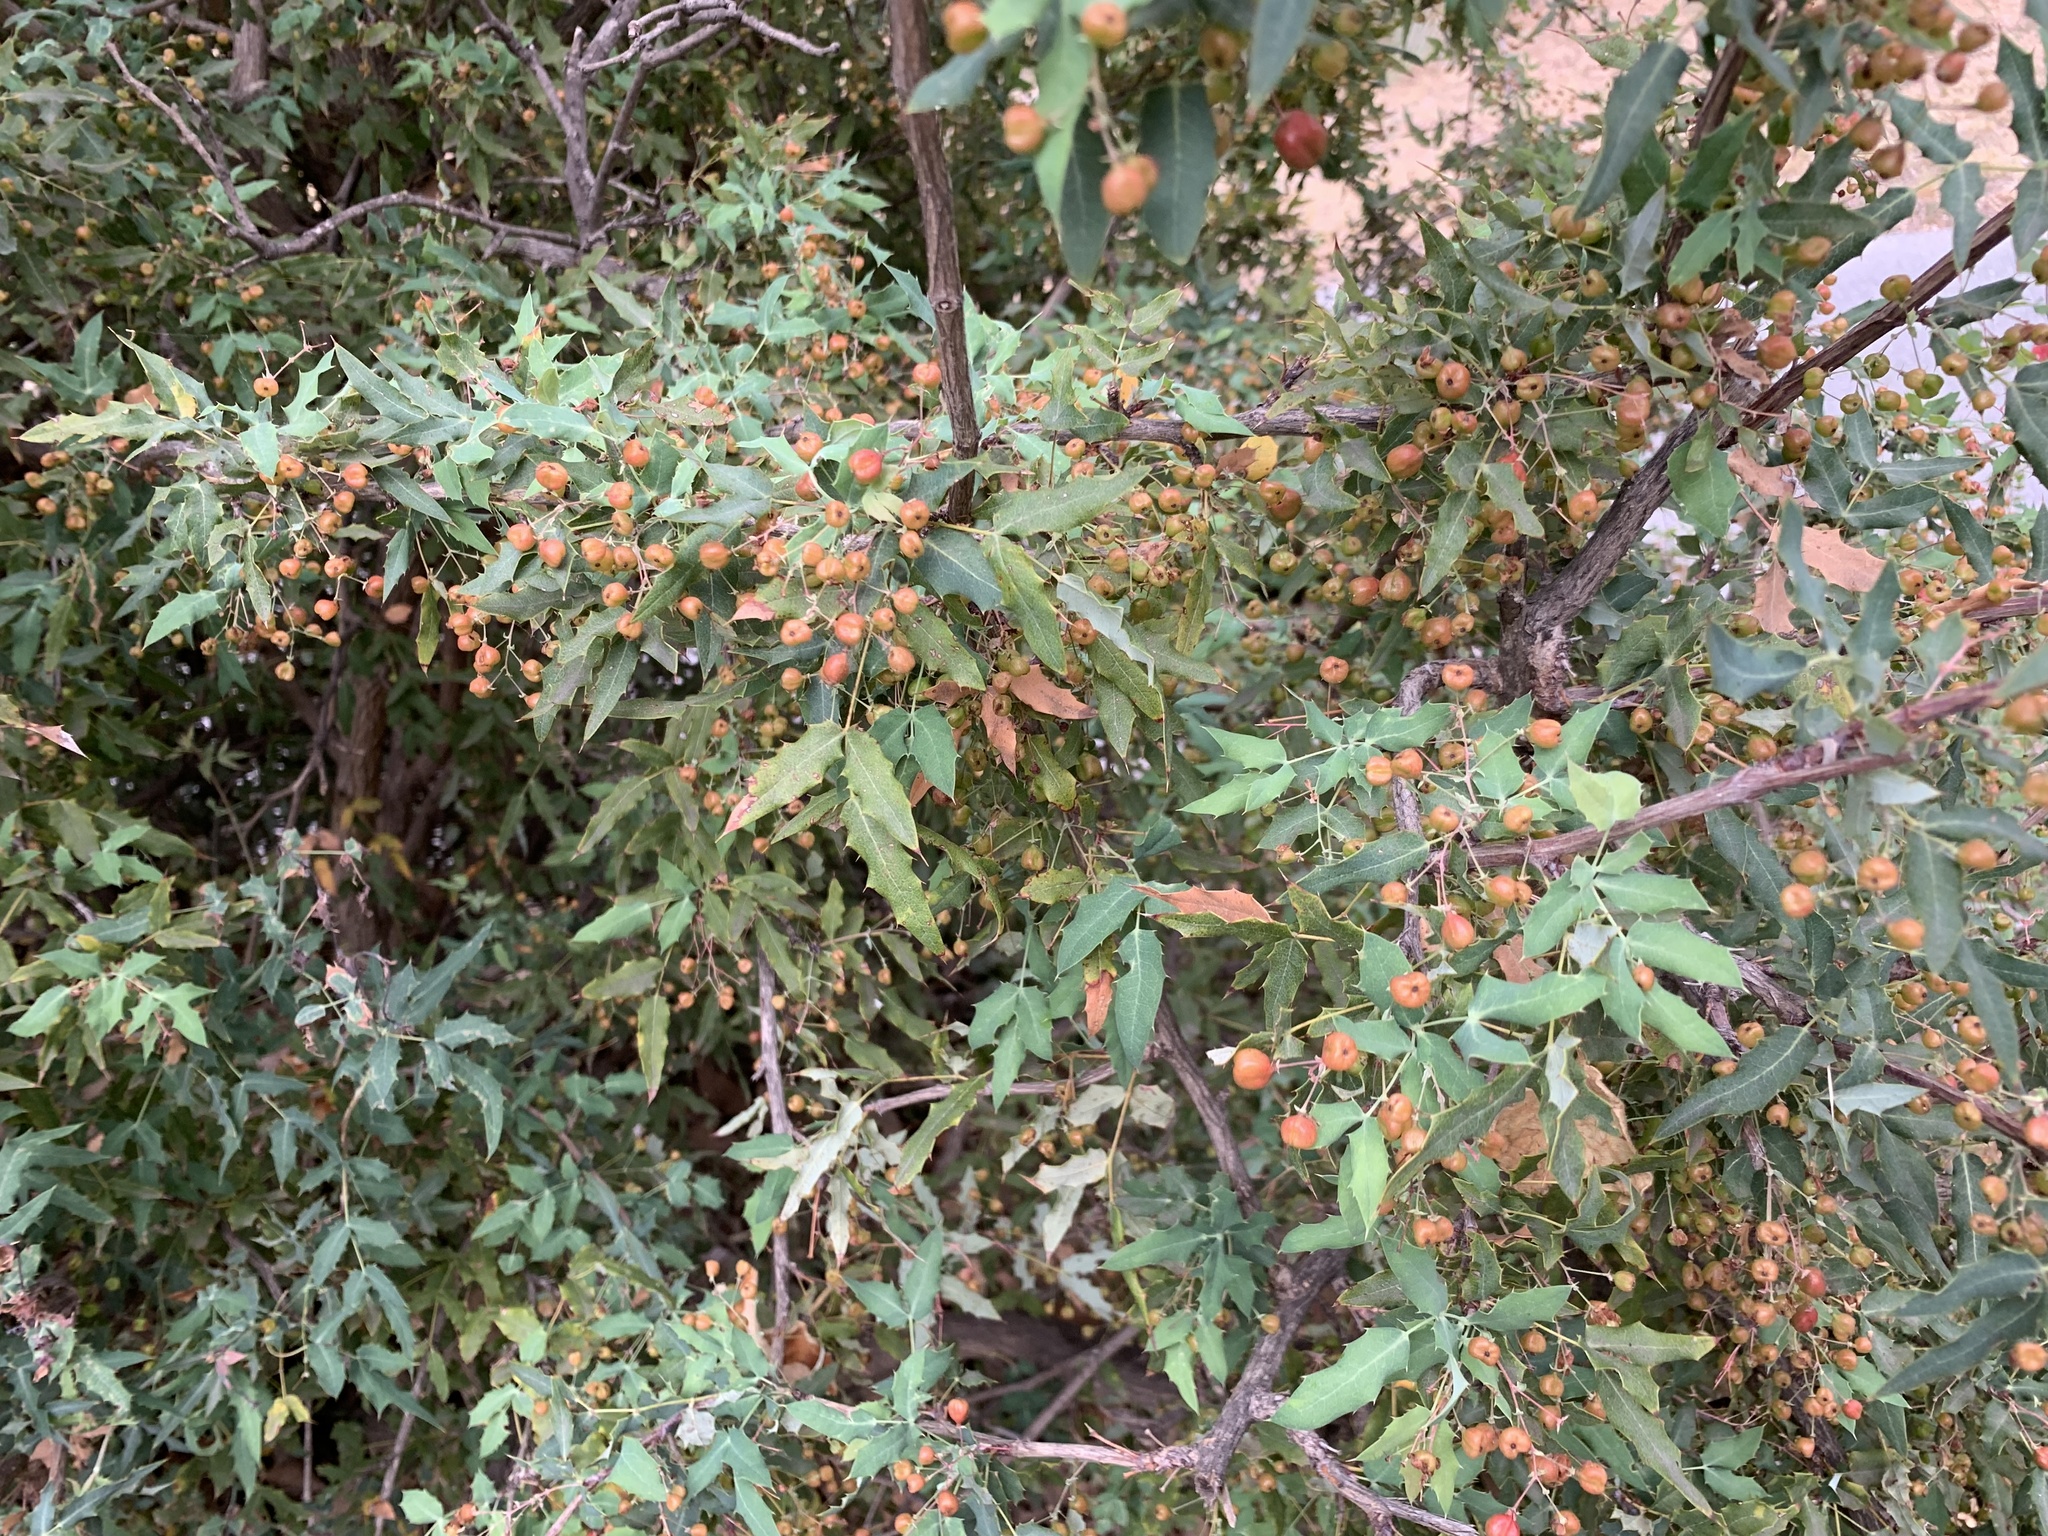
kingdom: Plantae
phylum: Tracheophyta
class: Magnoliopsida
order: Ranunculales
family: Berberidaceae
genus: Alloberberis
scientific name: Alloberberis nevinii
